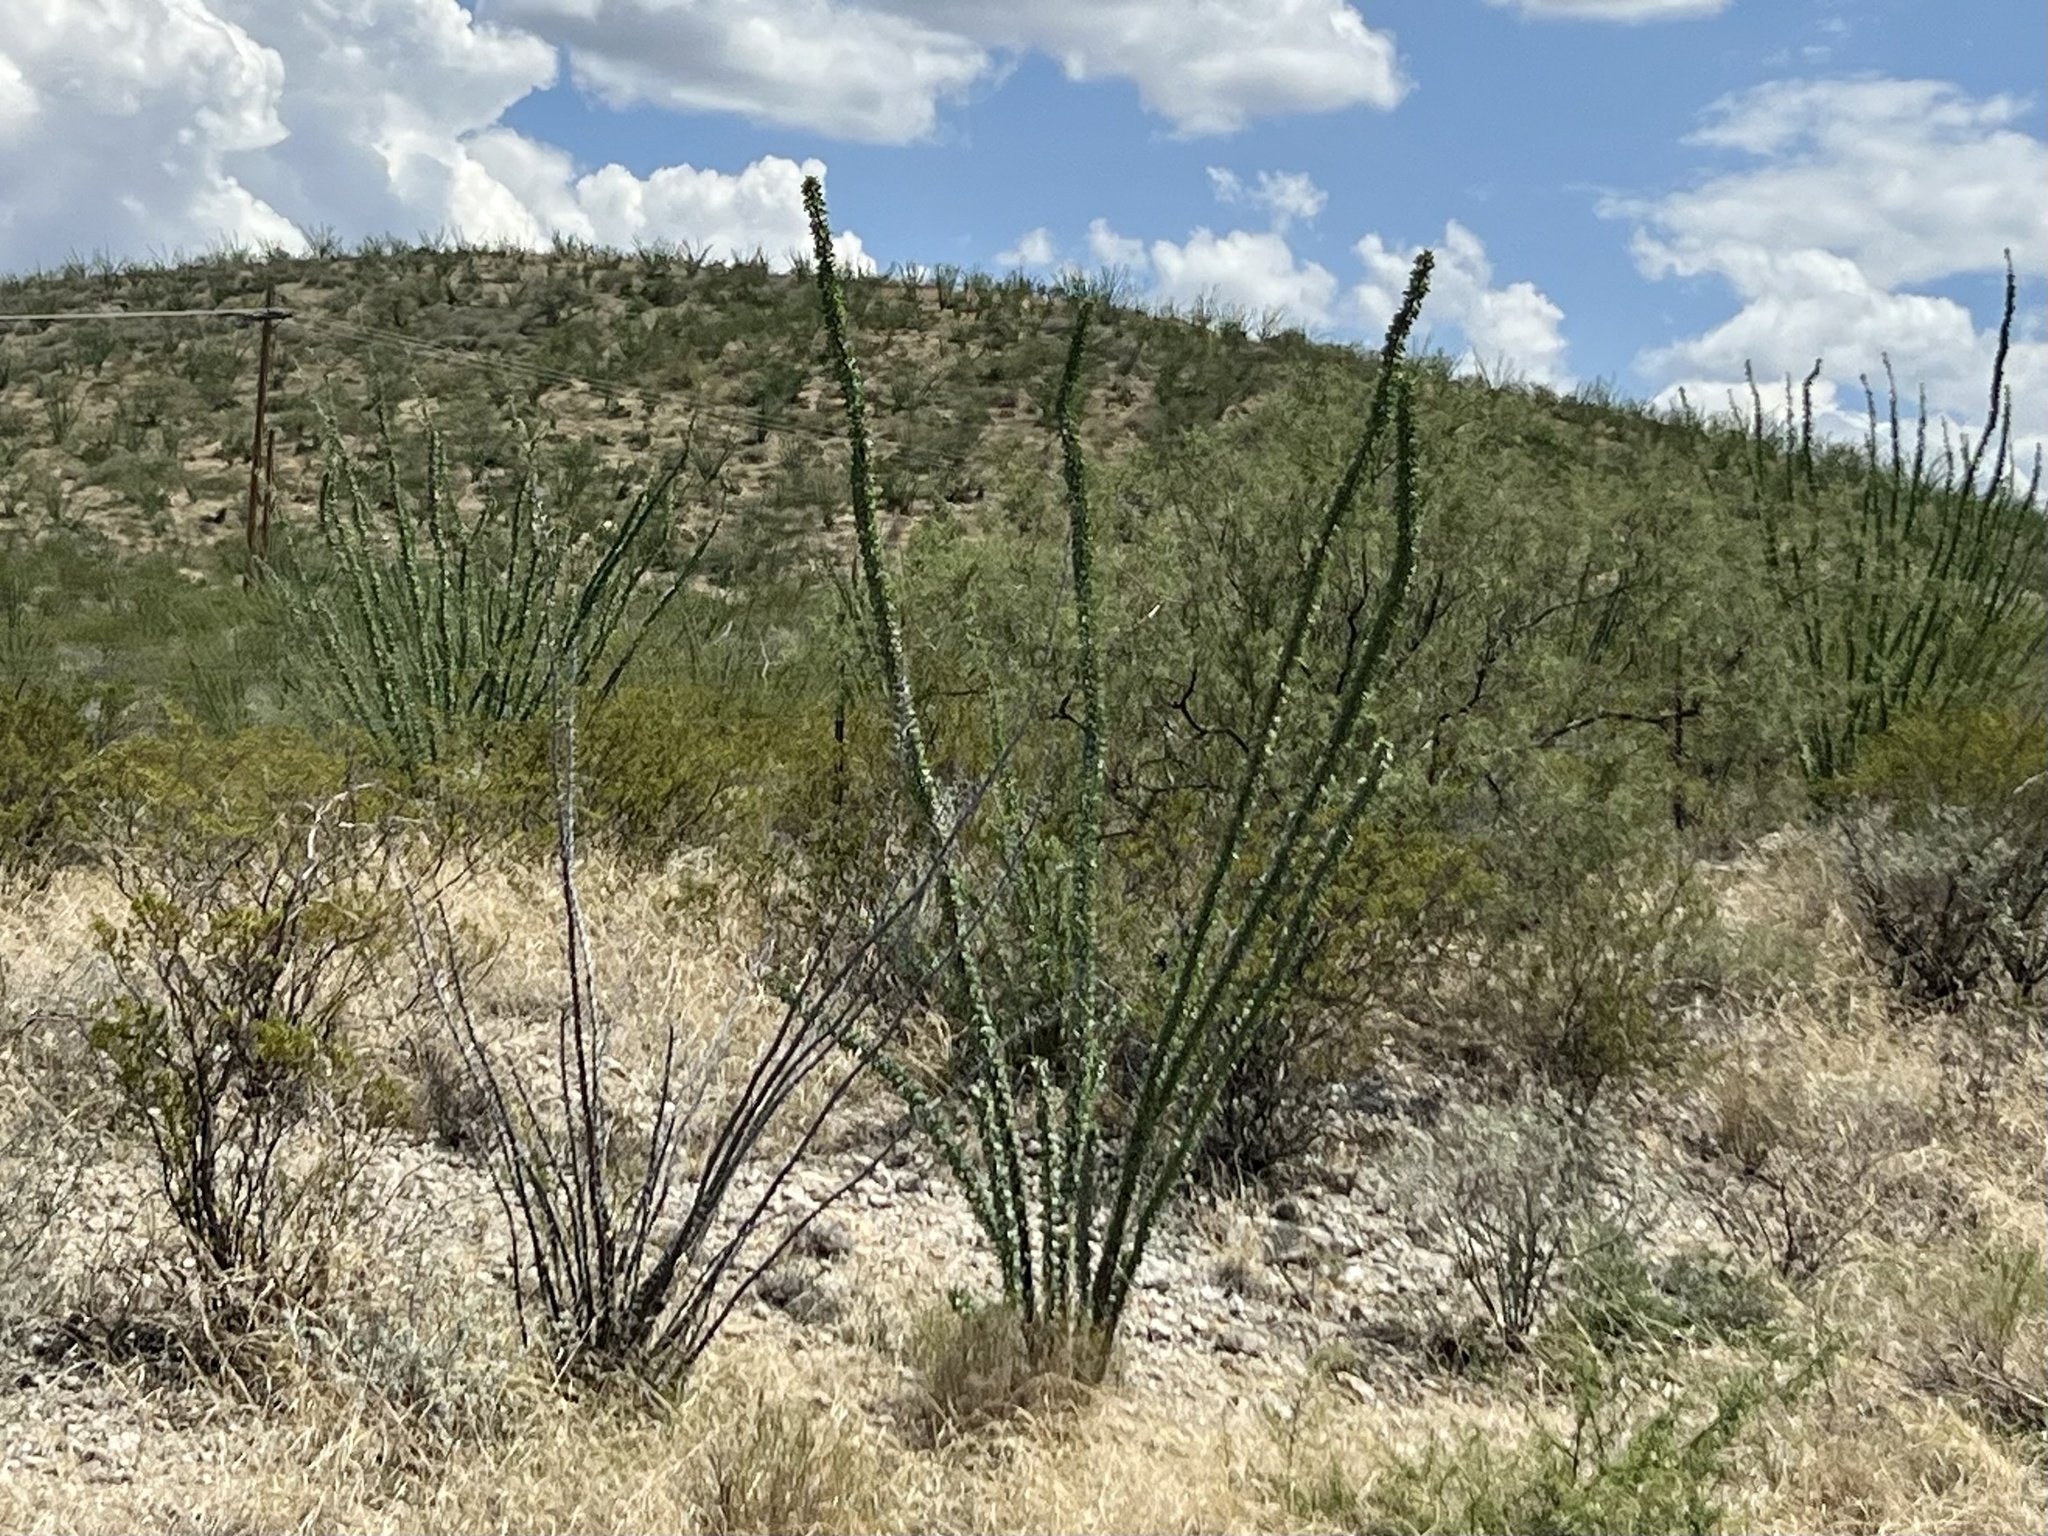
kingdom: Plantae
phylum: Tracheophyta
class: Magnoliopsida
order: Ericales
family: Fouquieriaceae
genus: Fouquieria
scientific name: Fouquieria splendens
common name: Vine-cactus
